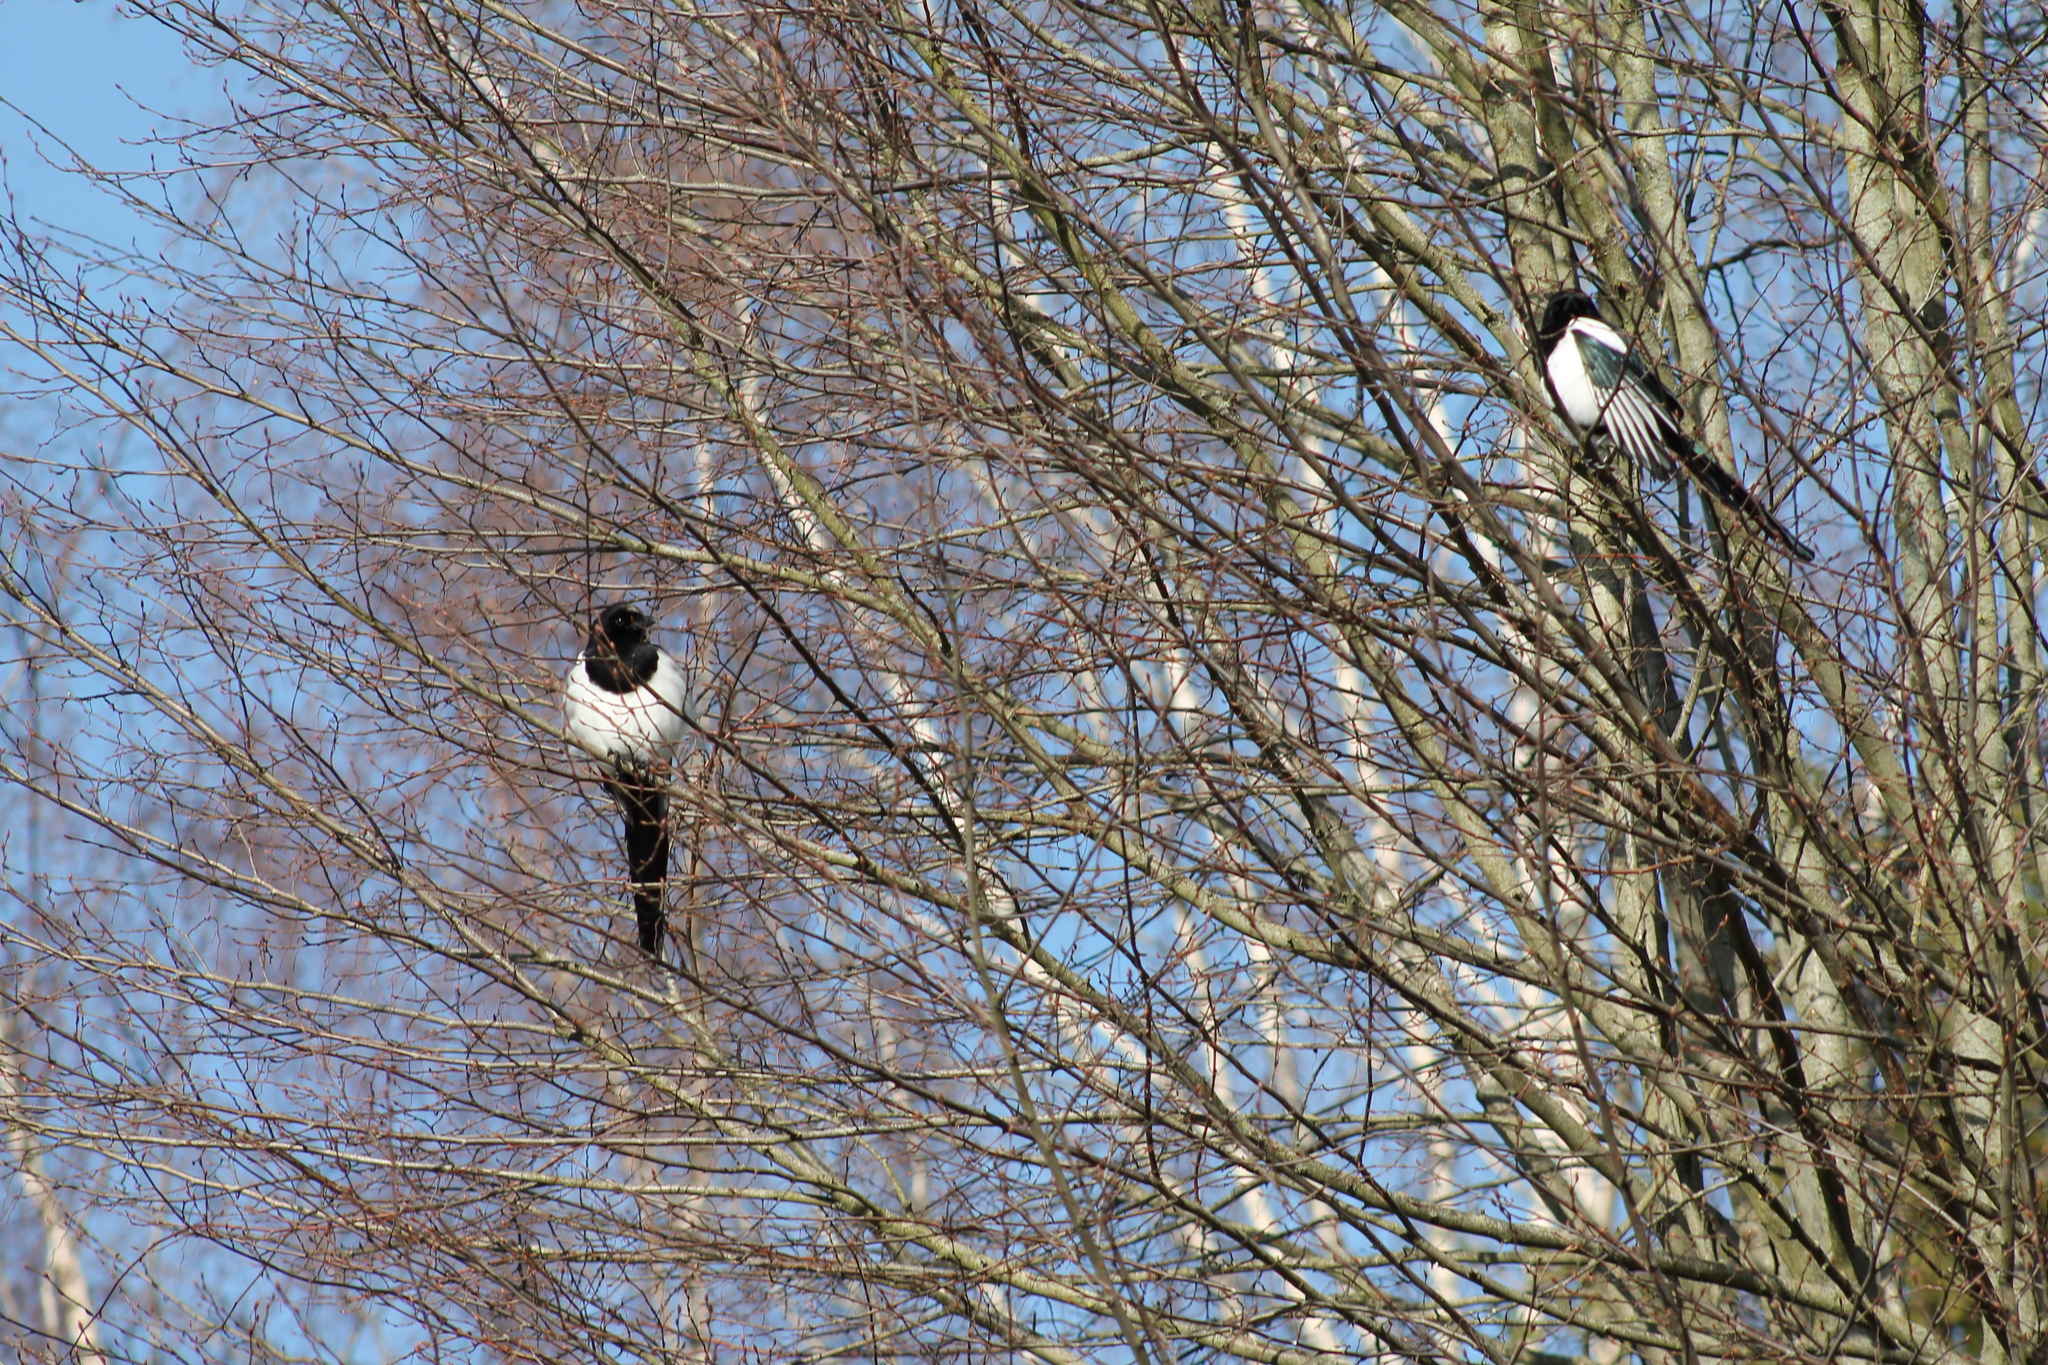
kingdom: Animalia
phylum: Chordata
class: Aves
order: Passeriformes
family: Corvidae
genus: Pica
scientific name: Pica pica
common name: Eurasian magpie
